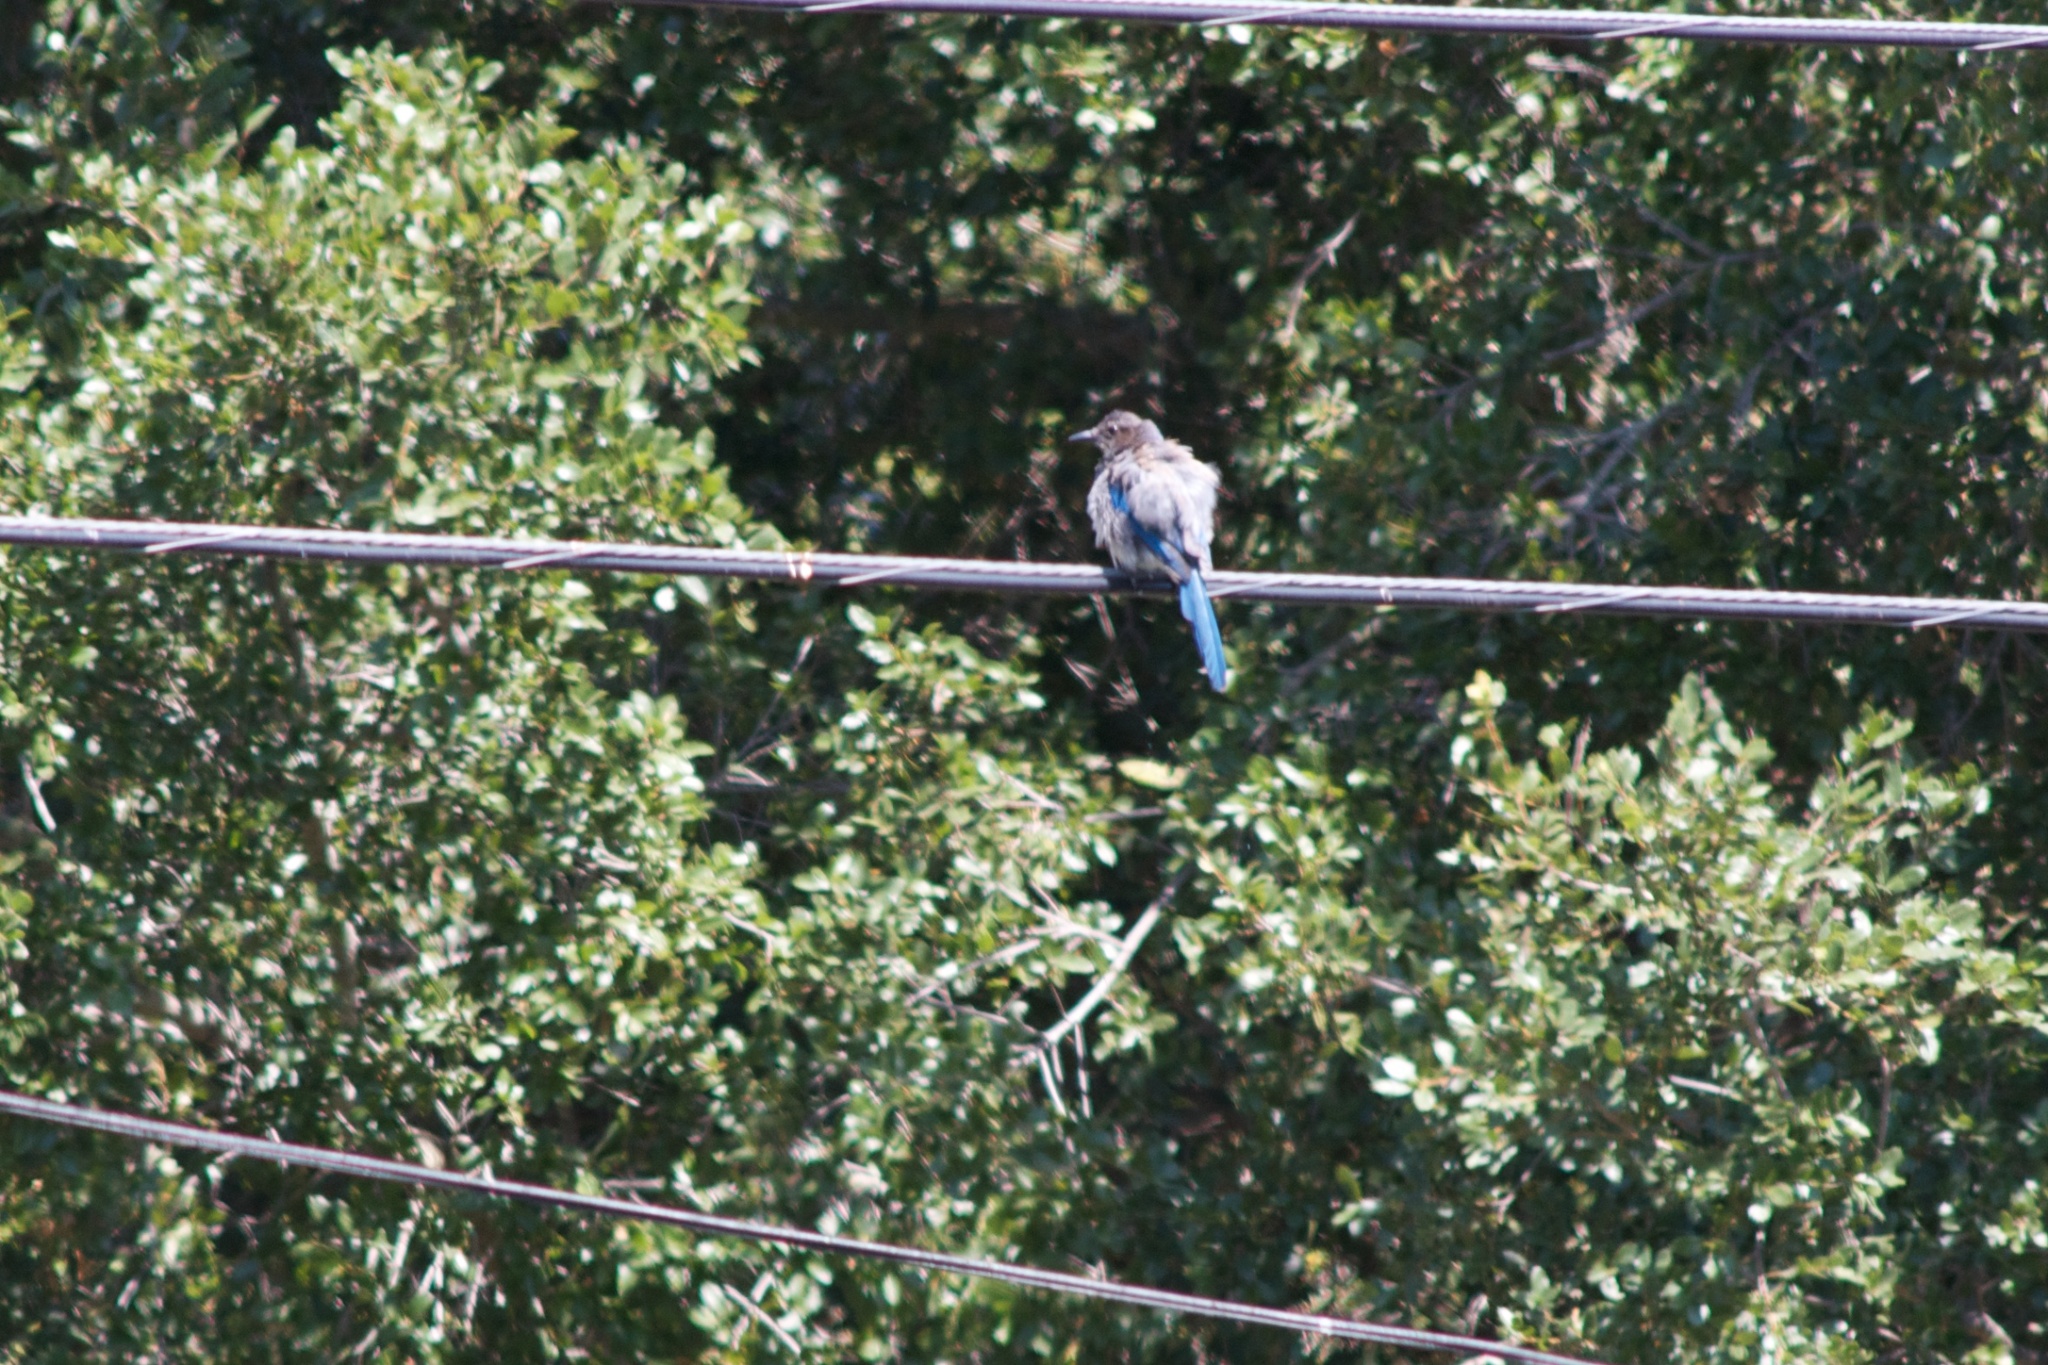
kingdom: Animalia
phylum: Chordata
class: Aves
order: Passeriformes
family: Corvidae
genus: Aphelocoma
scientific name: Aphelocoma californica
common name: California scrub-jay
